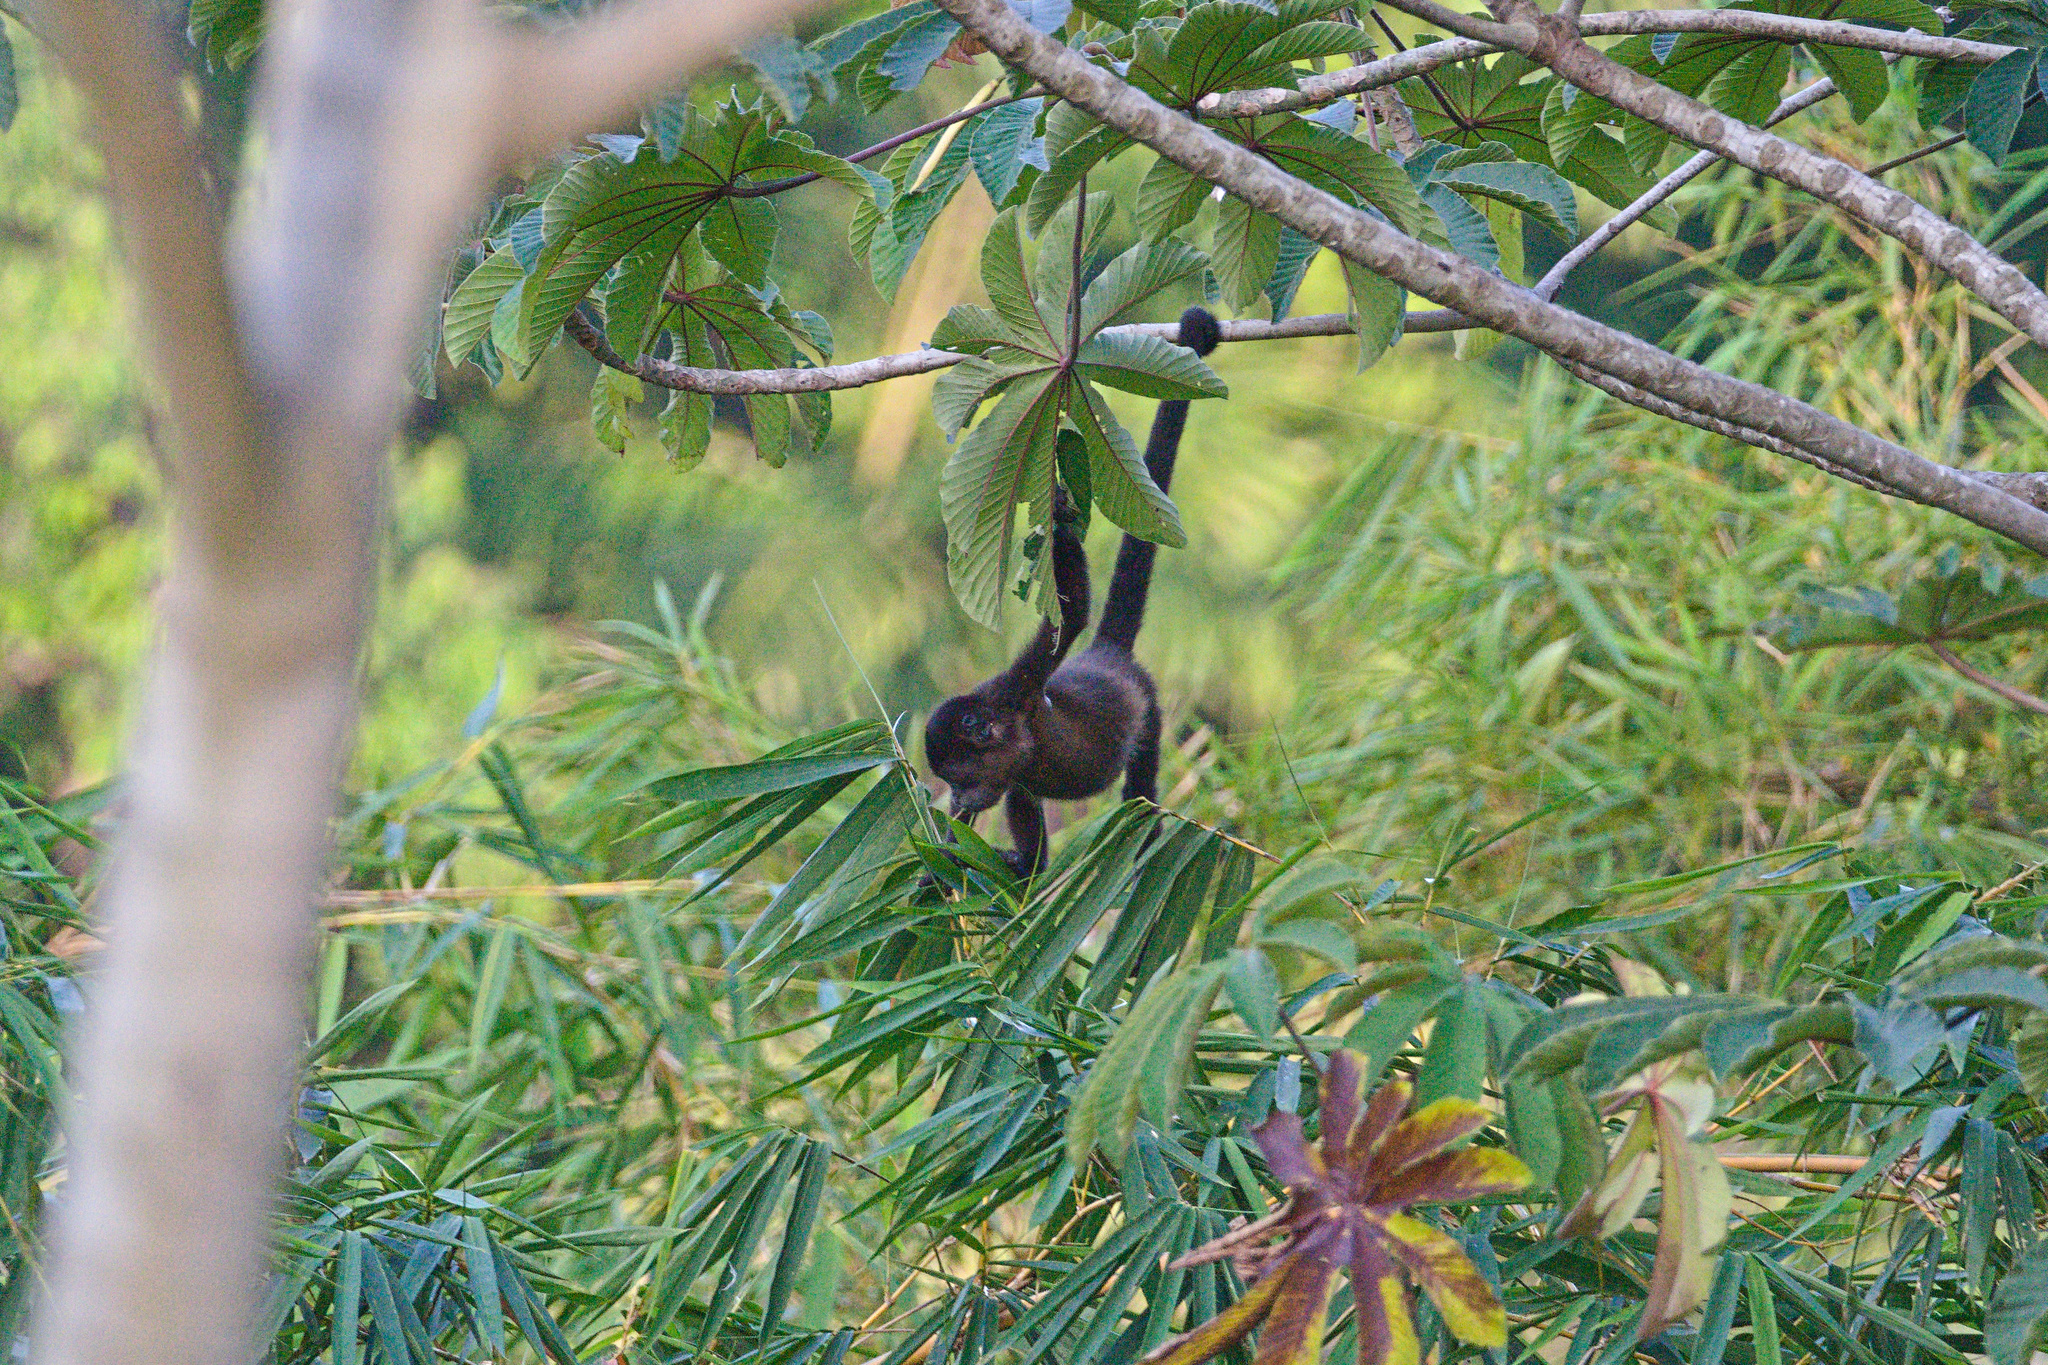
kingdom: Animalia
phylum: Chordata
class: Mammalia
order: Primates
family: Atelidae
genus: Alouatta
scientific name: Alouatta palliata
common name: Mantled howler
